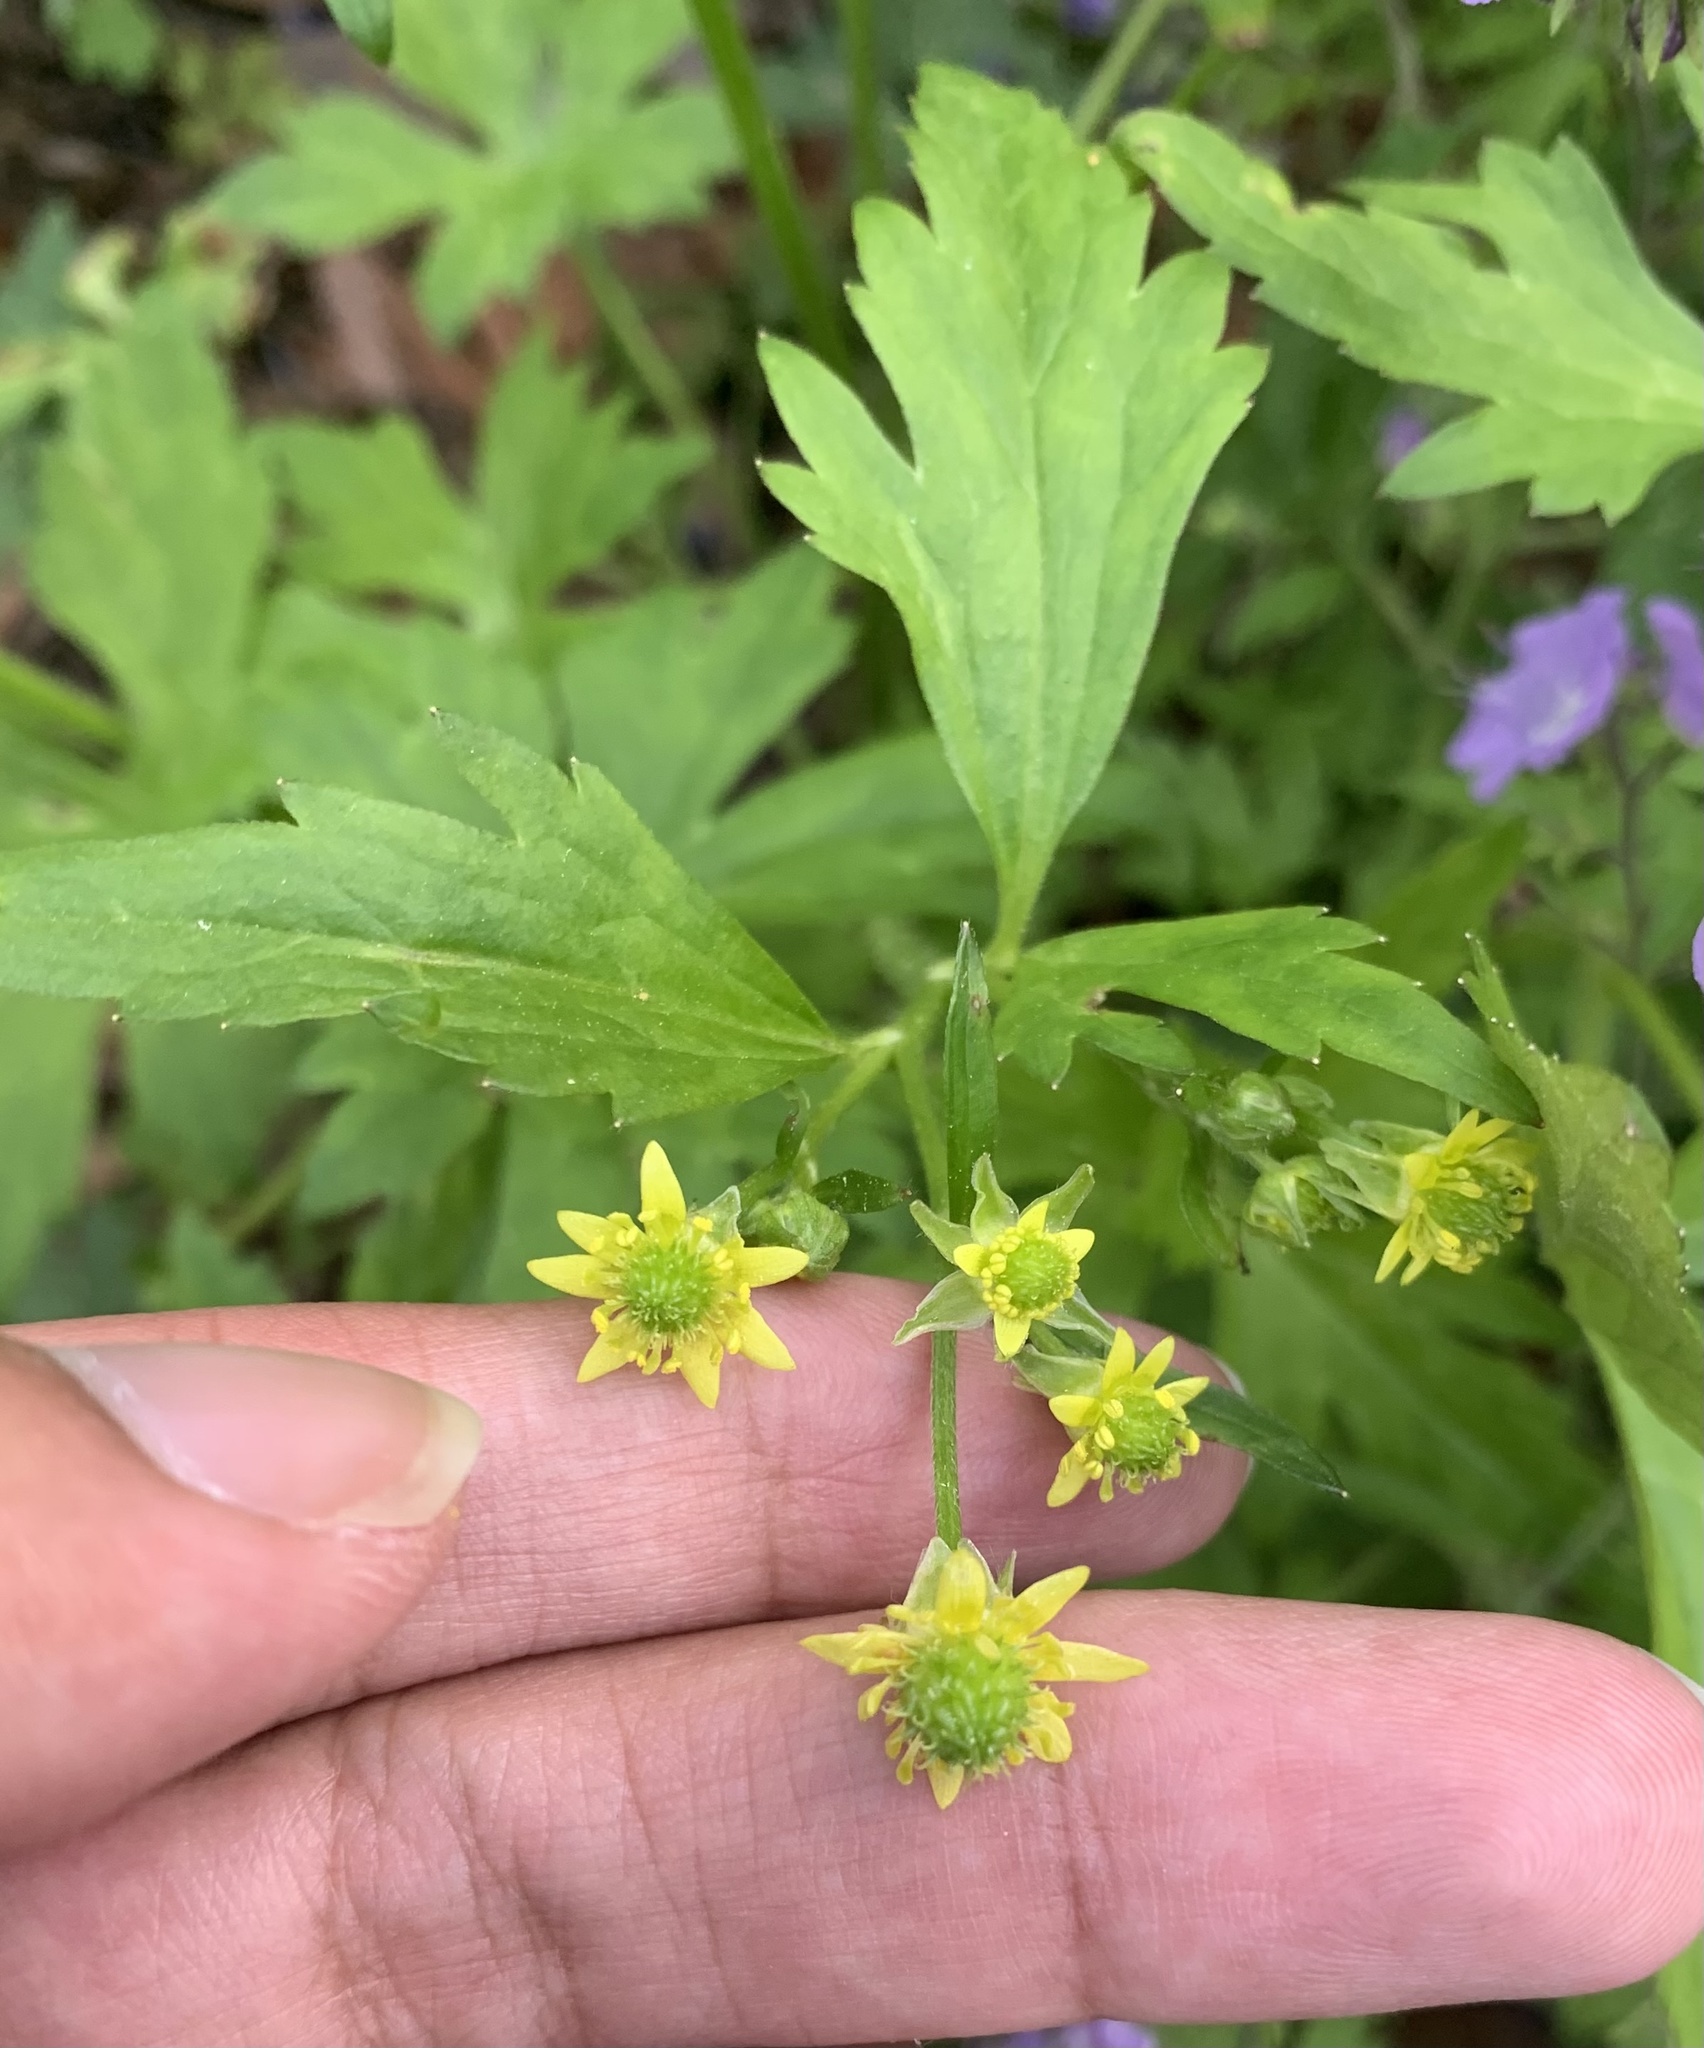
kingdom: Plantae
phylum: Tracheophyta
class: Magnoliopsida
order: Ranunculales
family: Ranunculaceae
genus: Ranunculus
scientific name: Ranunculus recurvatus
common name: Blisterwort
